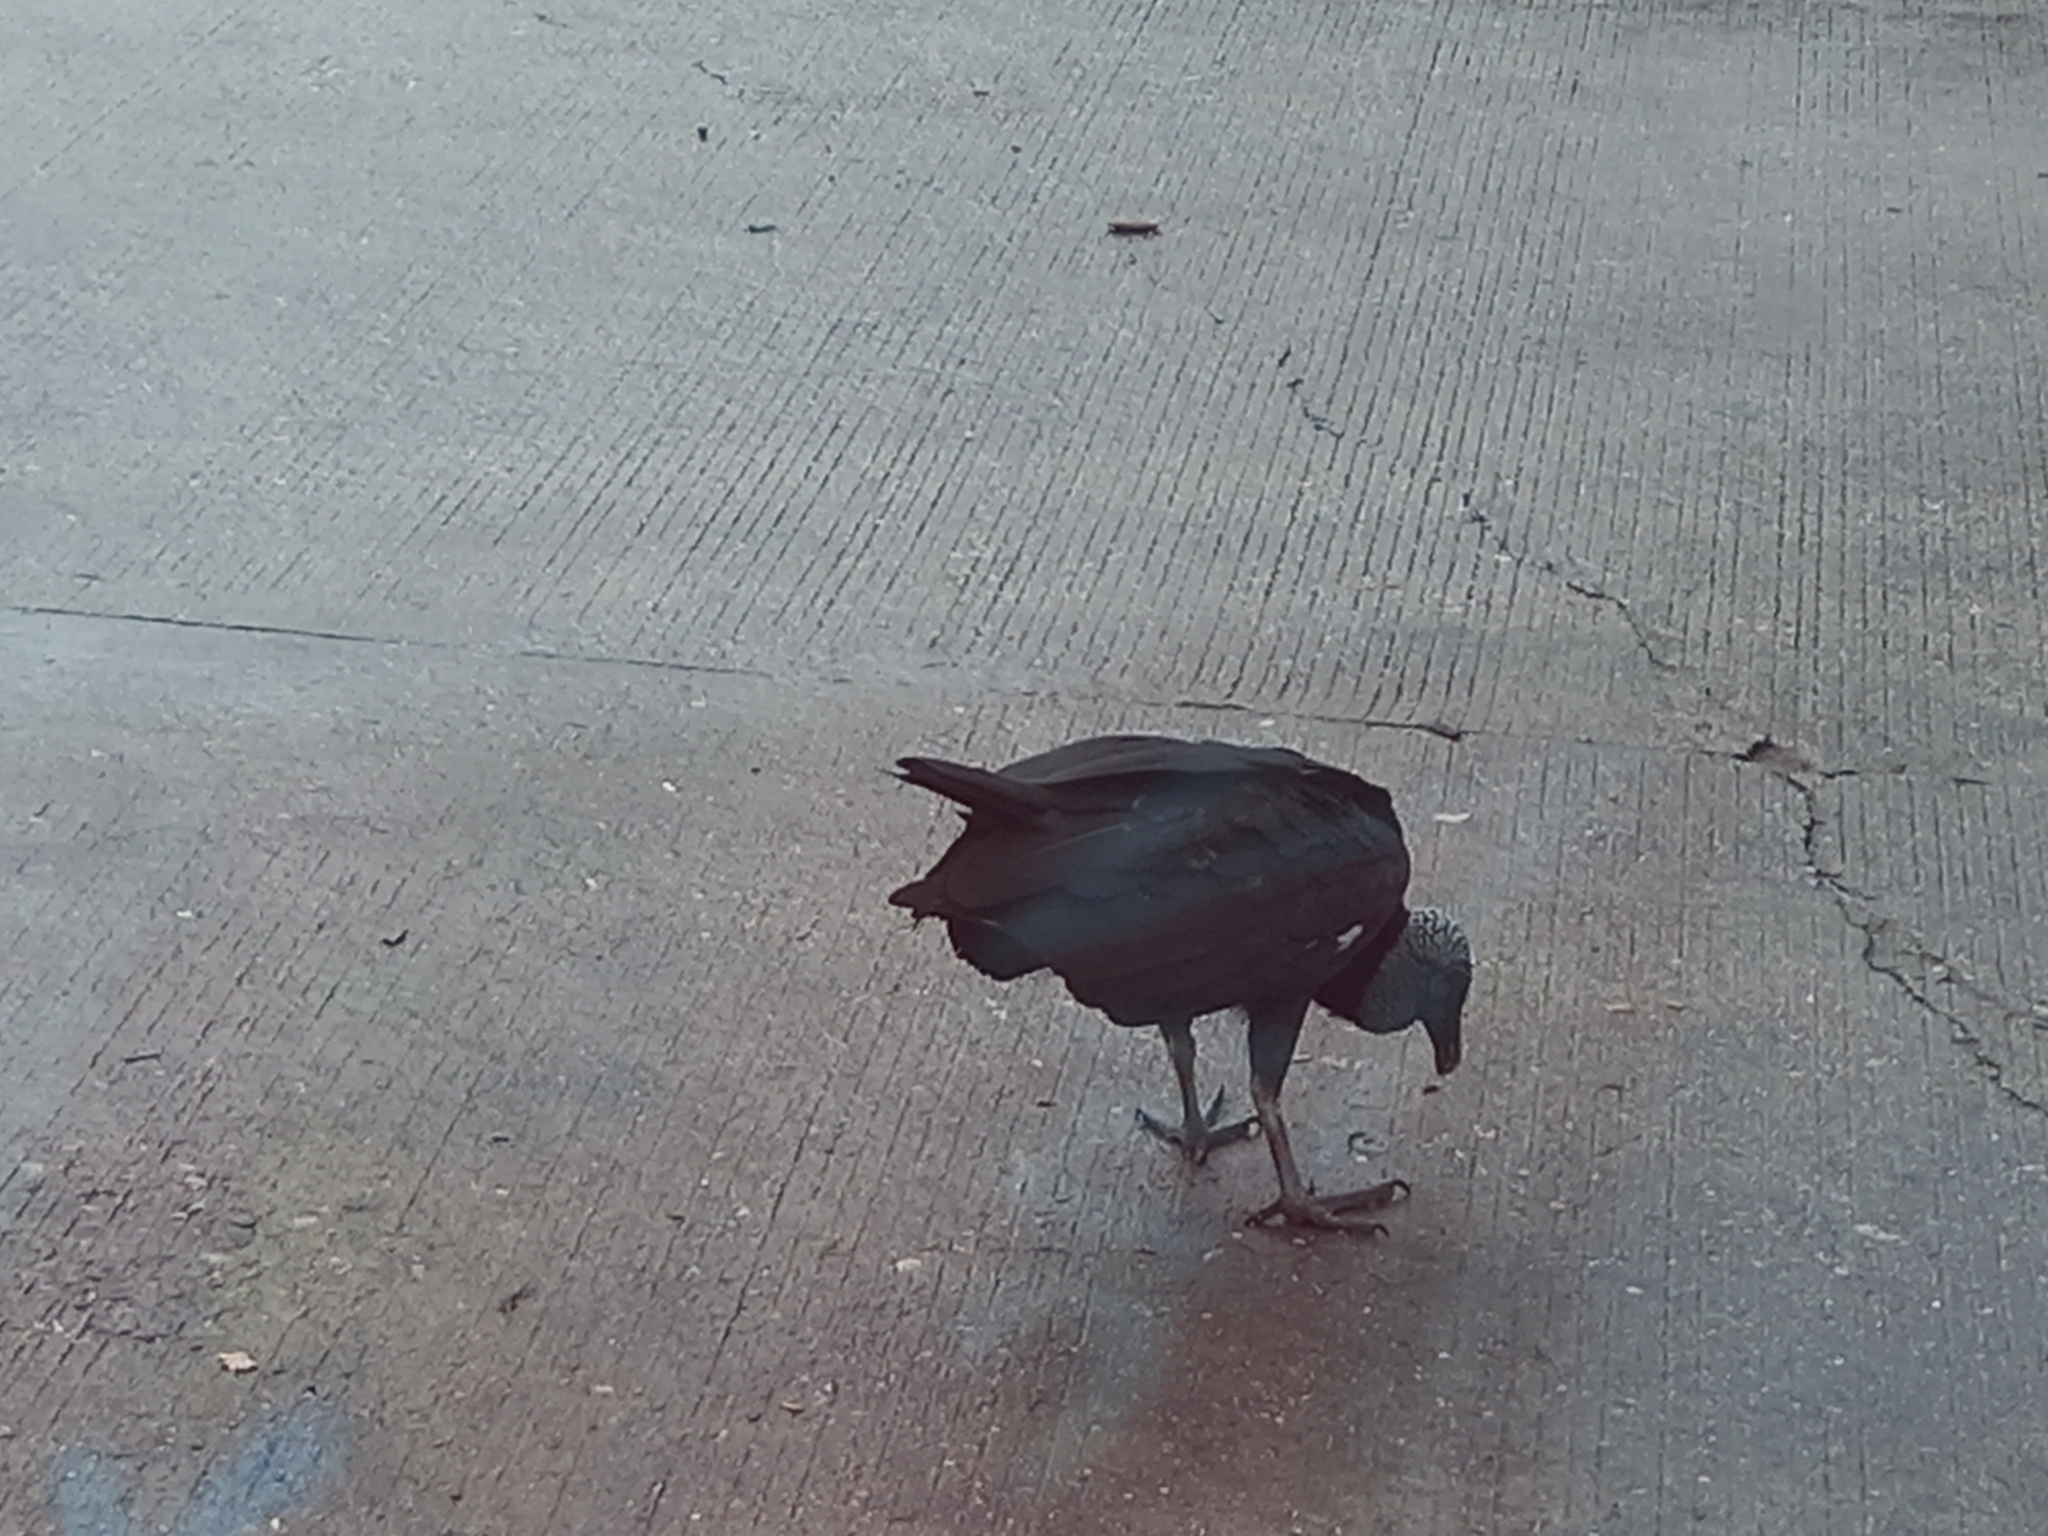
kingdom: Animalia
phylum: Chordata
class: Aves
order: Accipitriformes
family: Cathartidae
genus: Coragyps
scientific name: Coragyps atratus
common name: Black vulture
